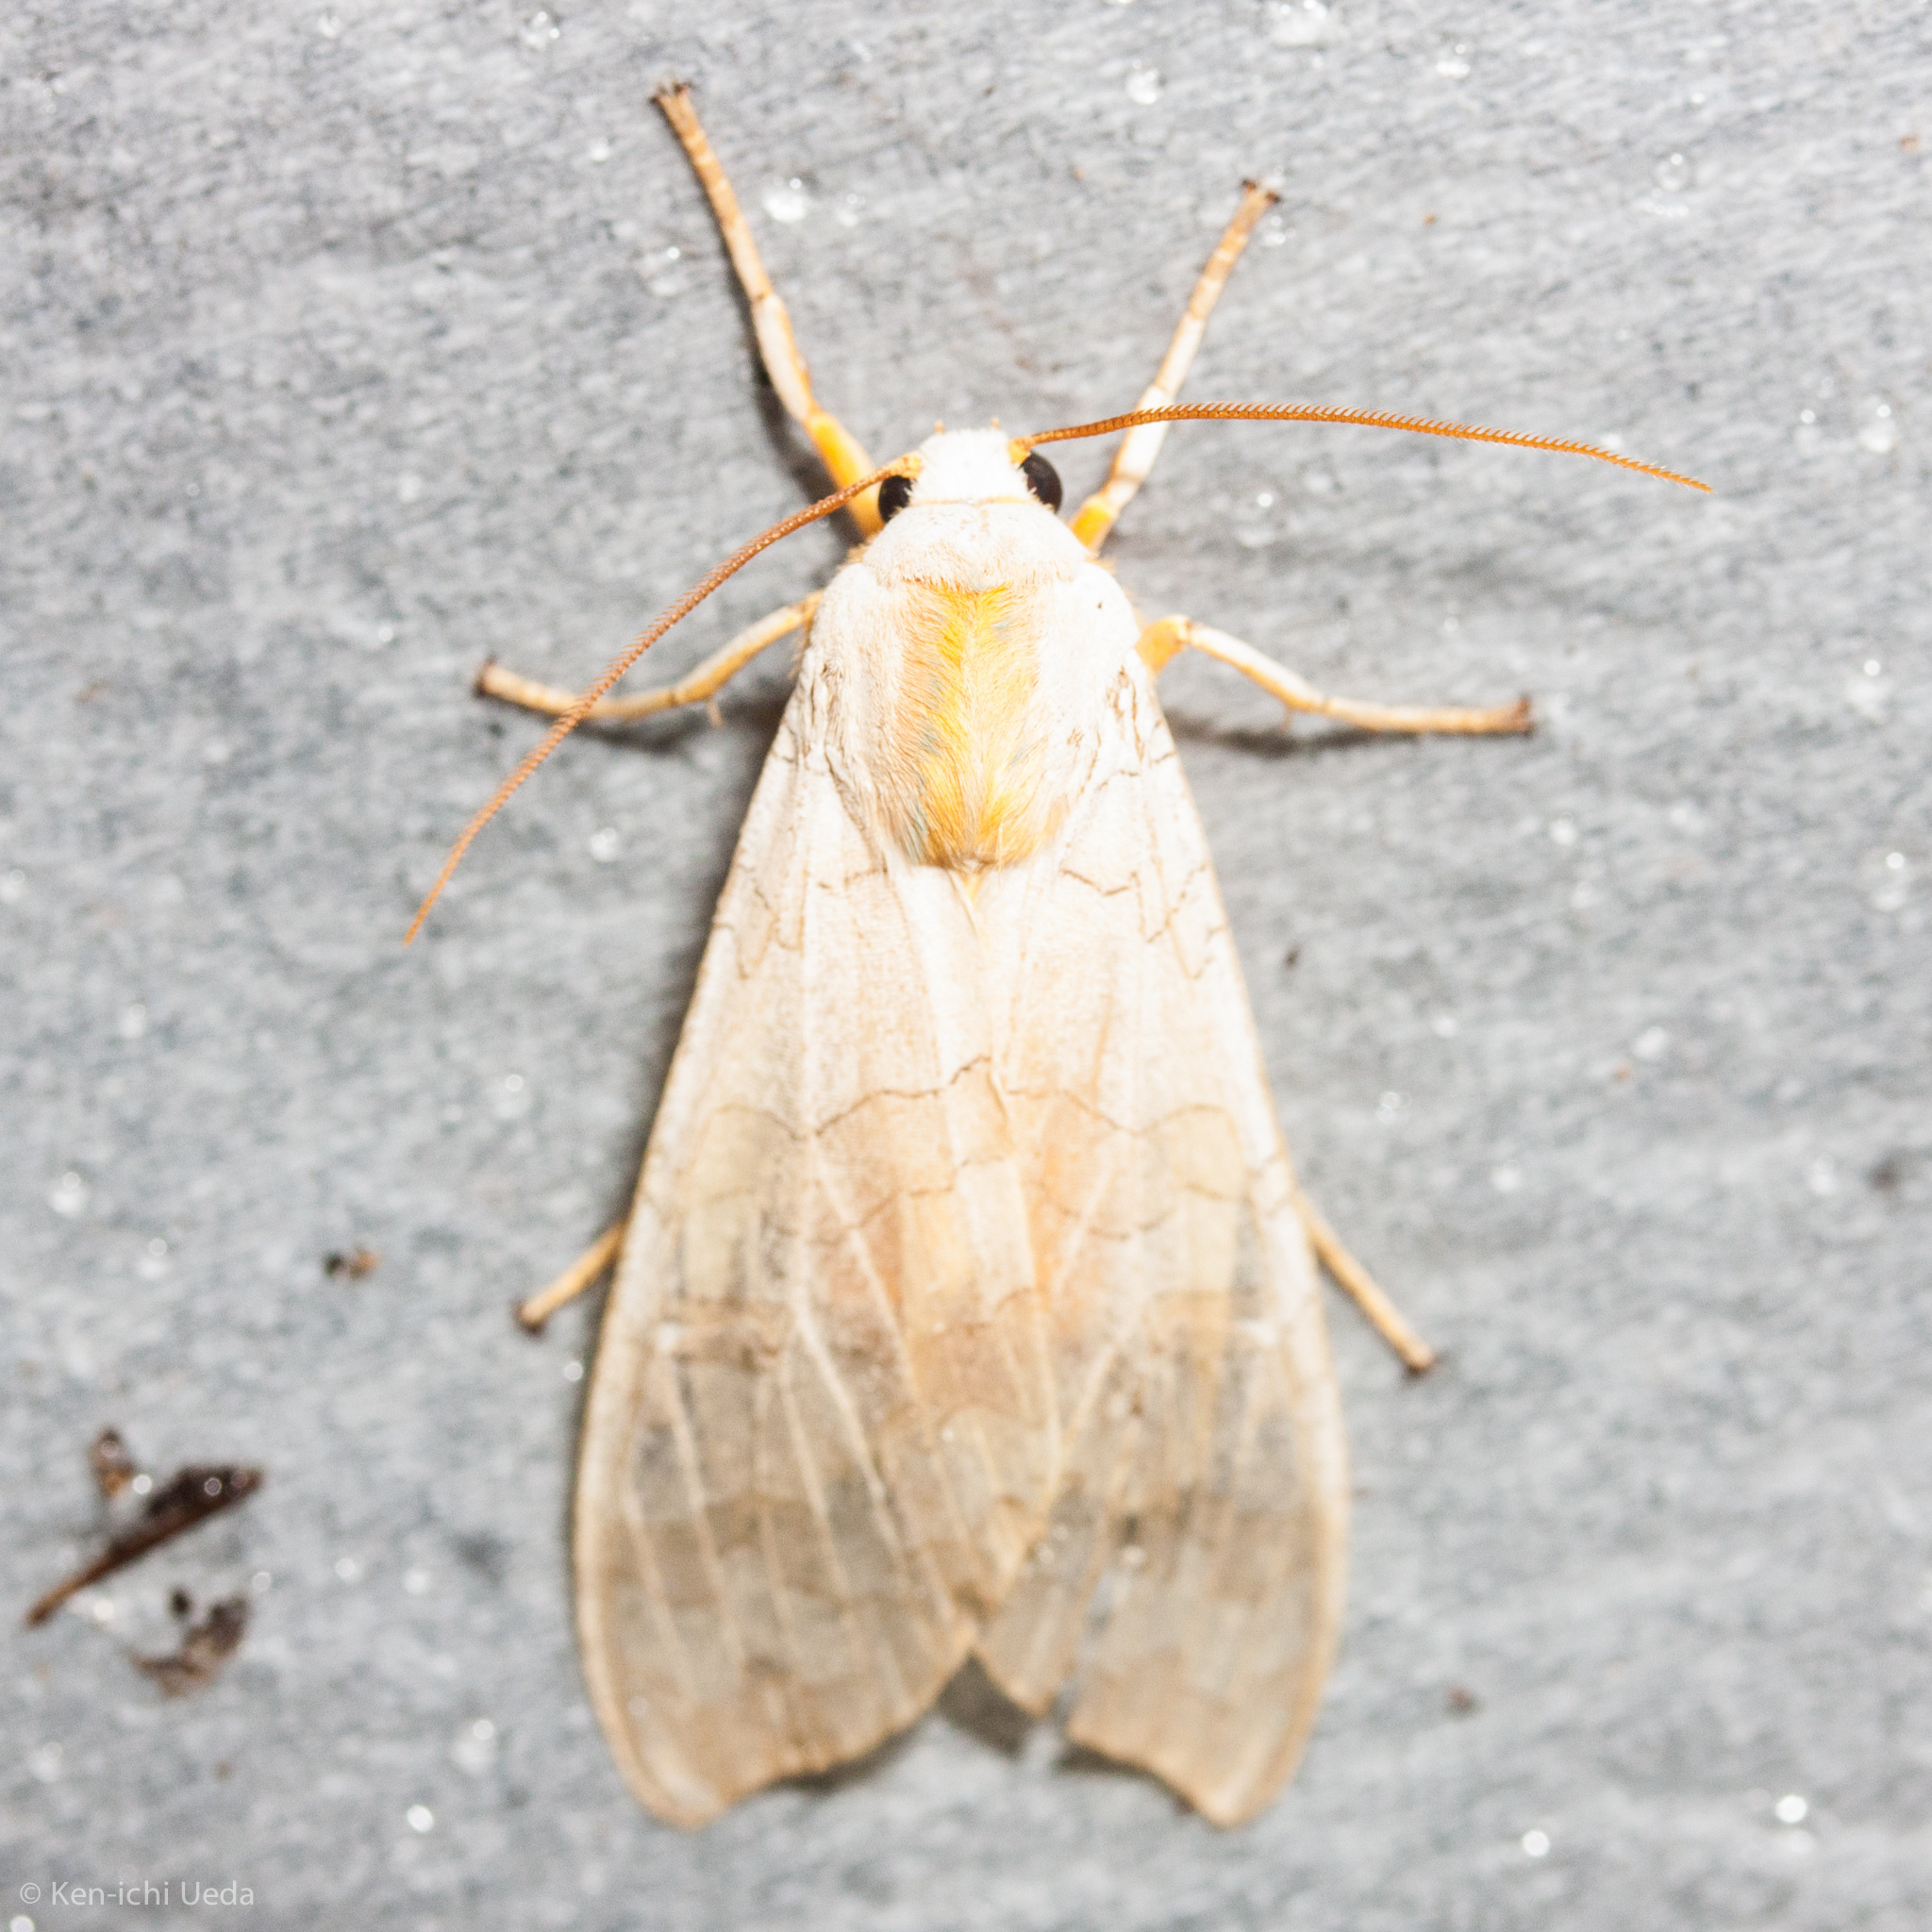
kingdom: Animalia
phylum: Arthropoda
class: Insecta
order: Lepidoptera
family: Erebidae
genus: Halysidota
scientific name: Halysidota tessellaris
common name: Banded tussock moth
